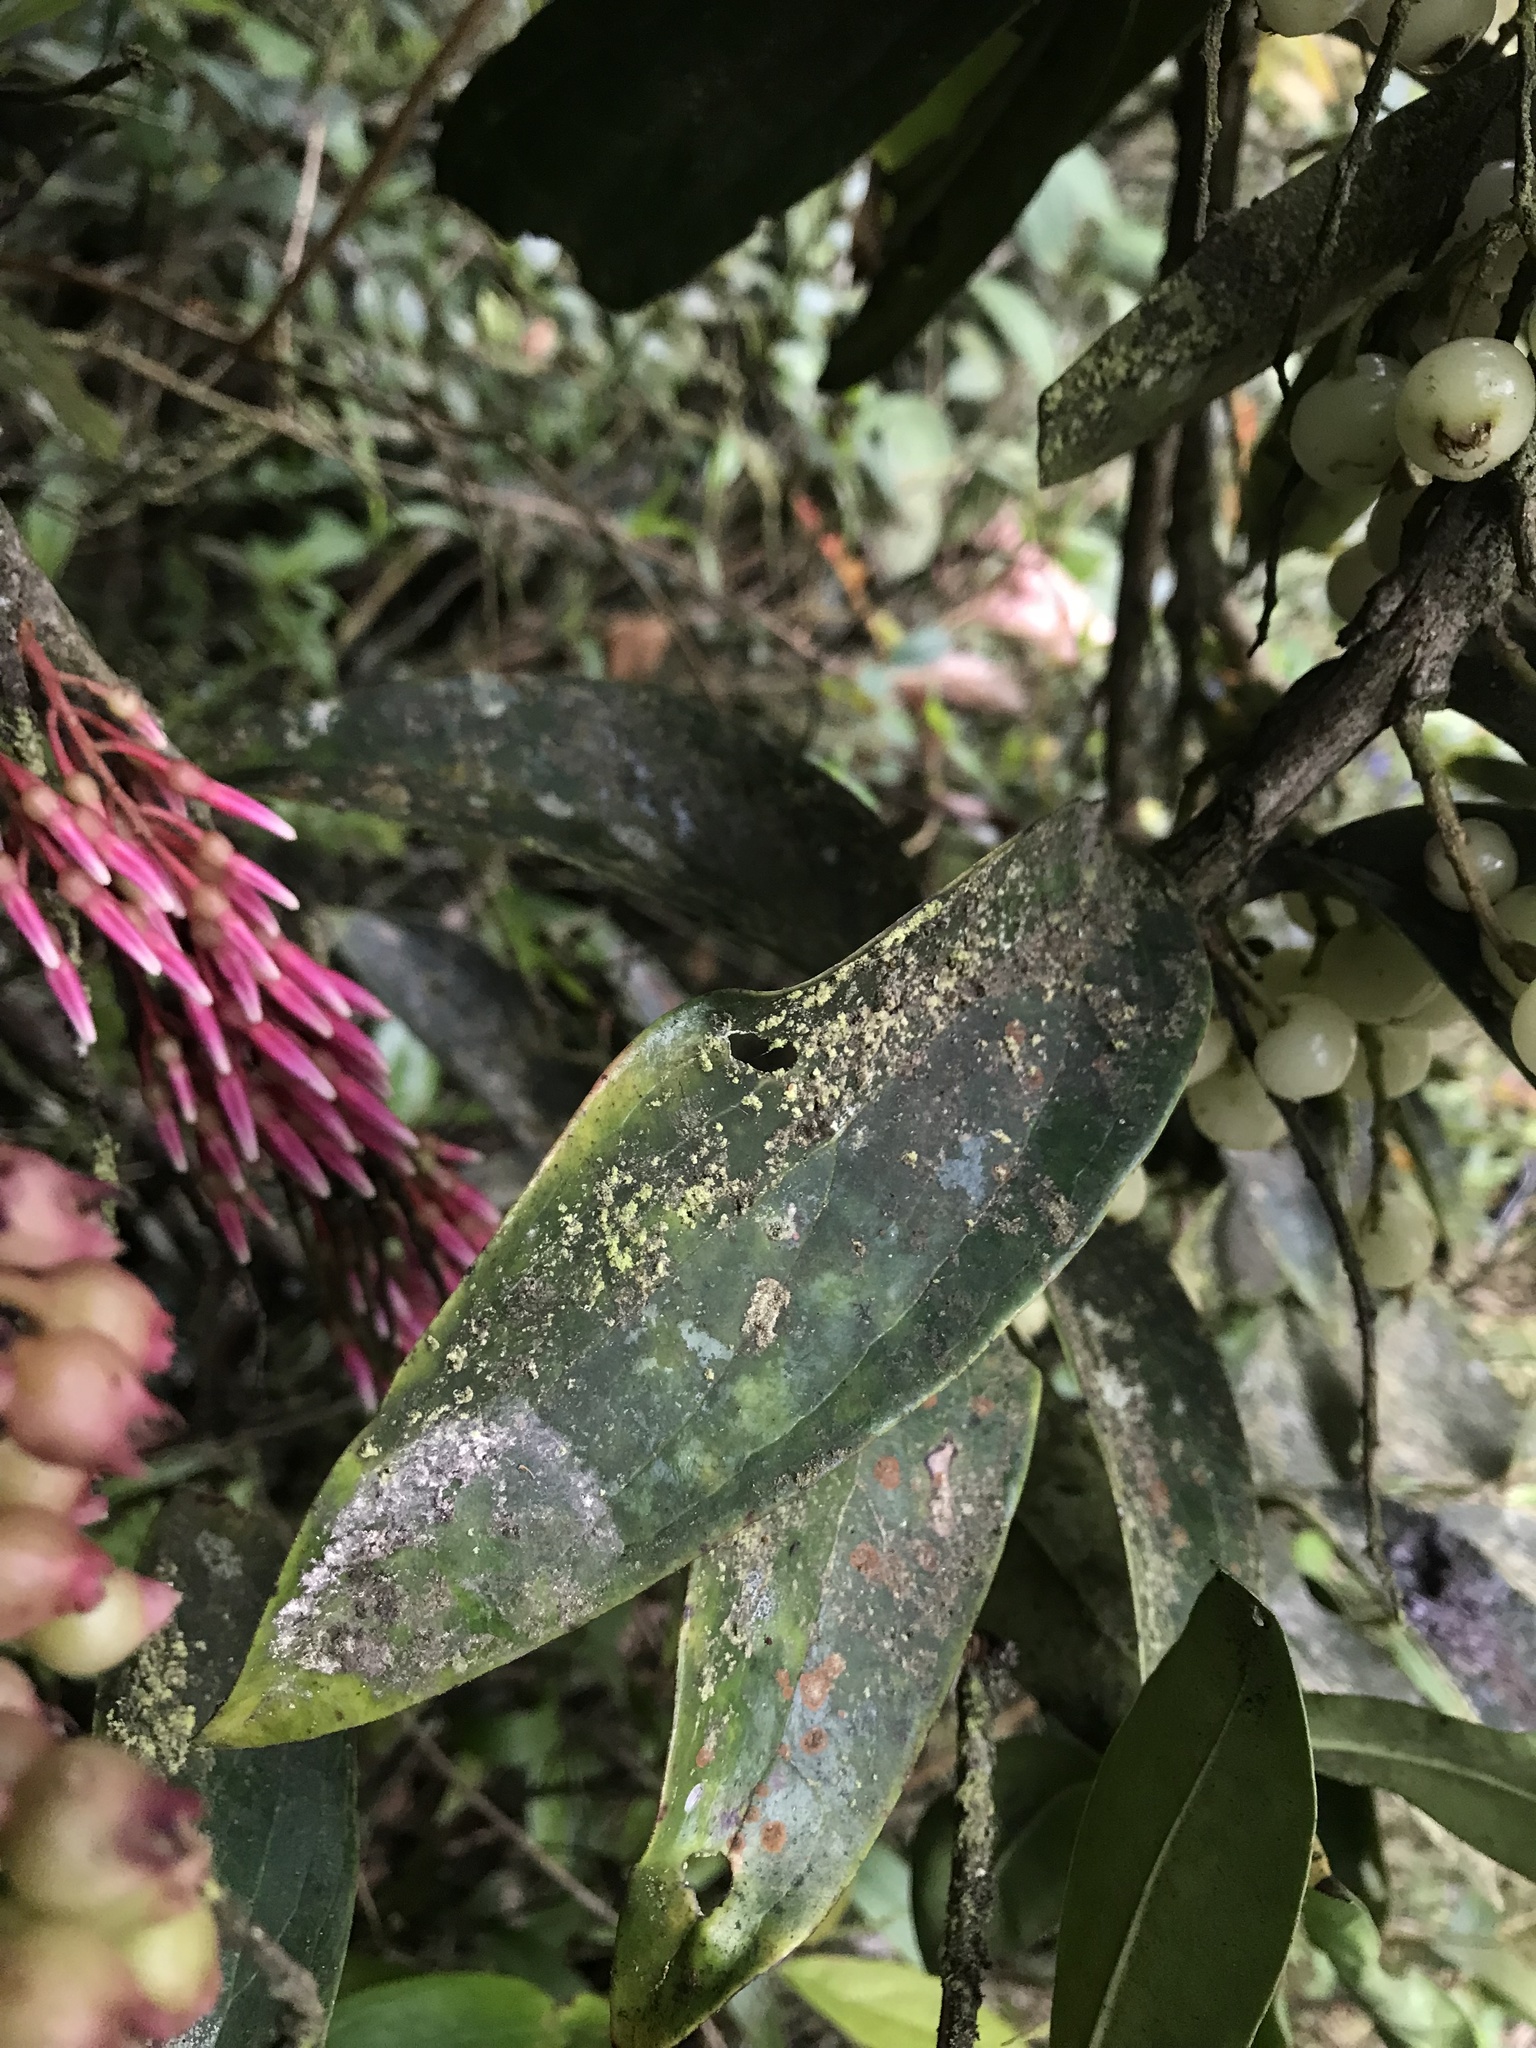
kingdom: Plantae
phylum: Tracheophyta
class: Magnoliopsida
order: Ericales
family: Ericaceae
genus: Thibaudia
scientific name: Thibaudia floribunda
